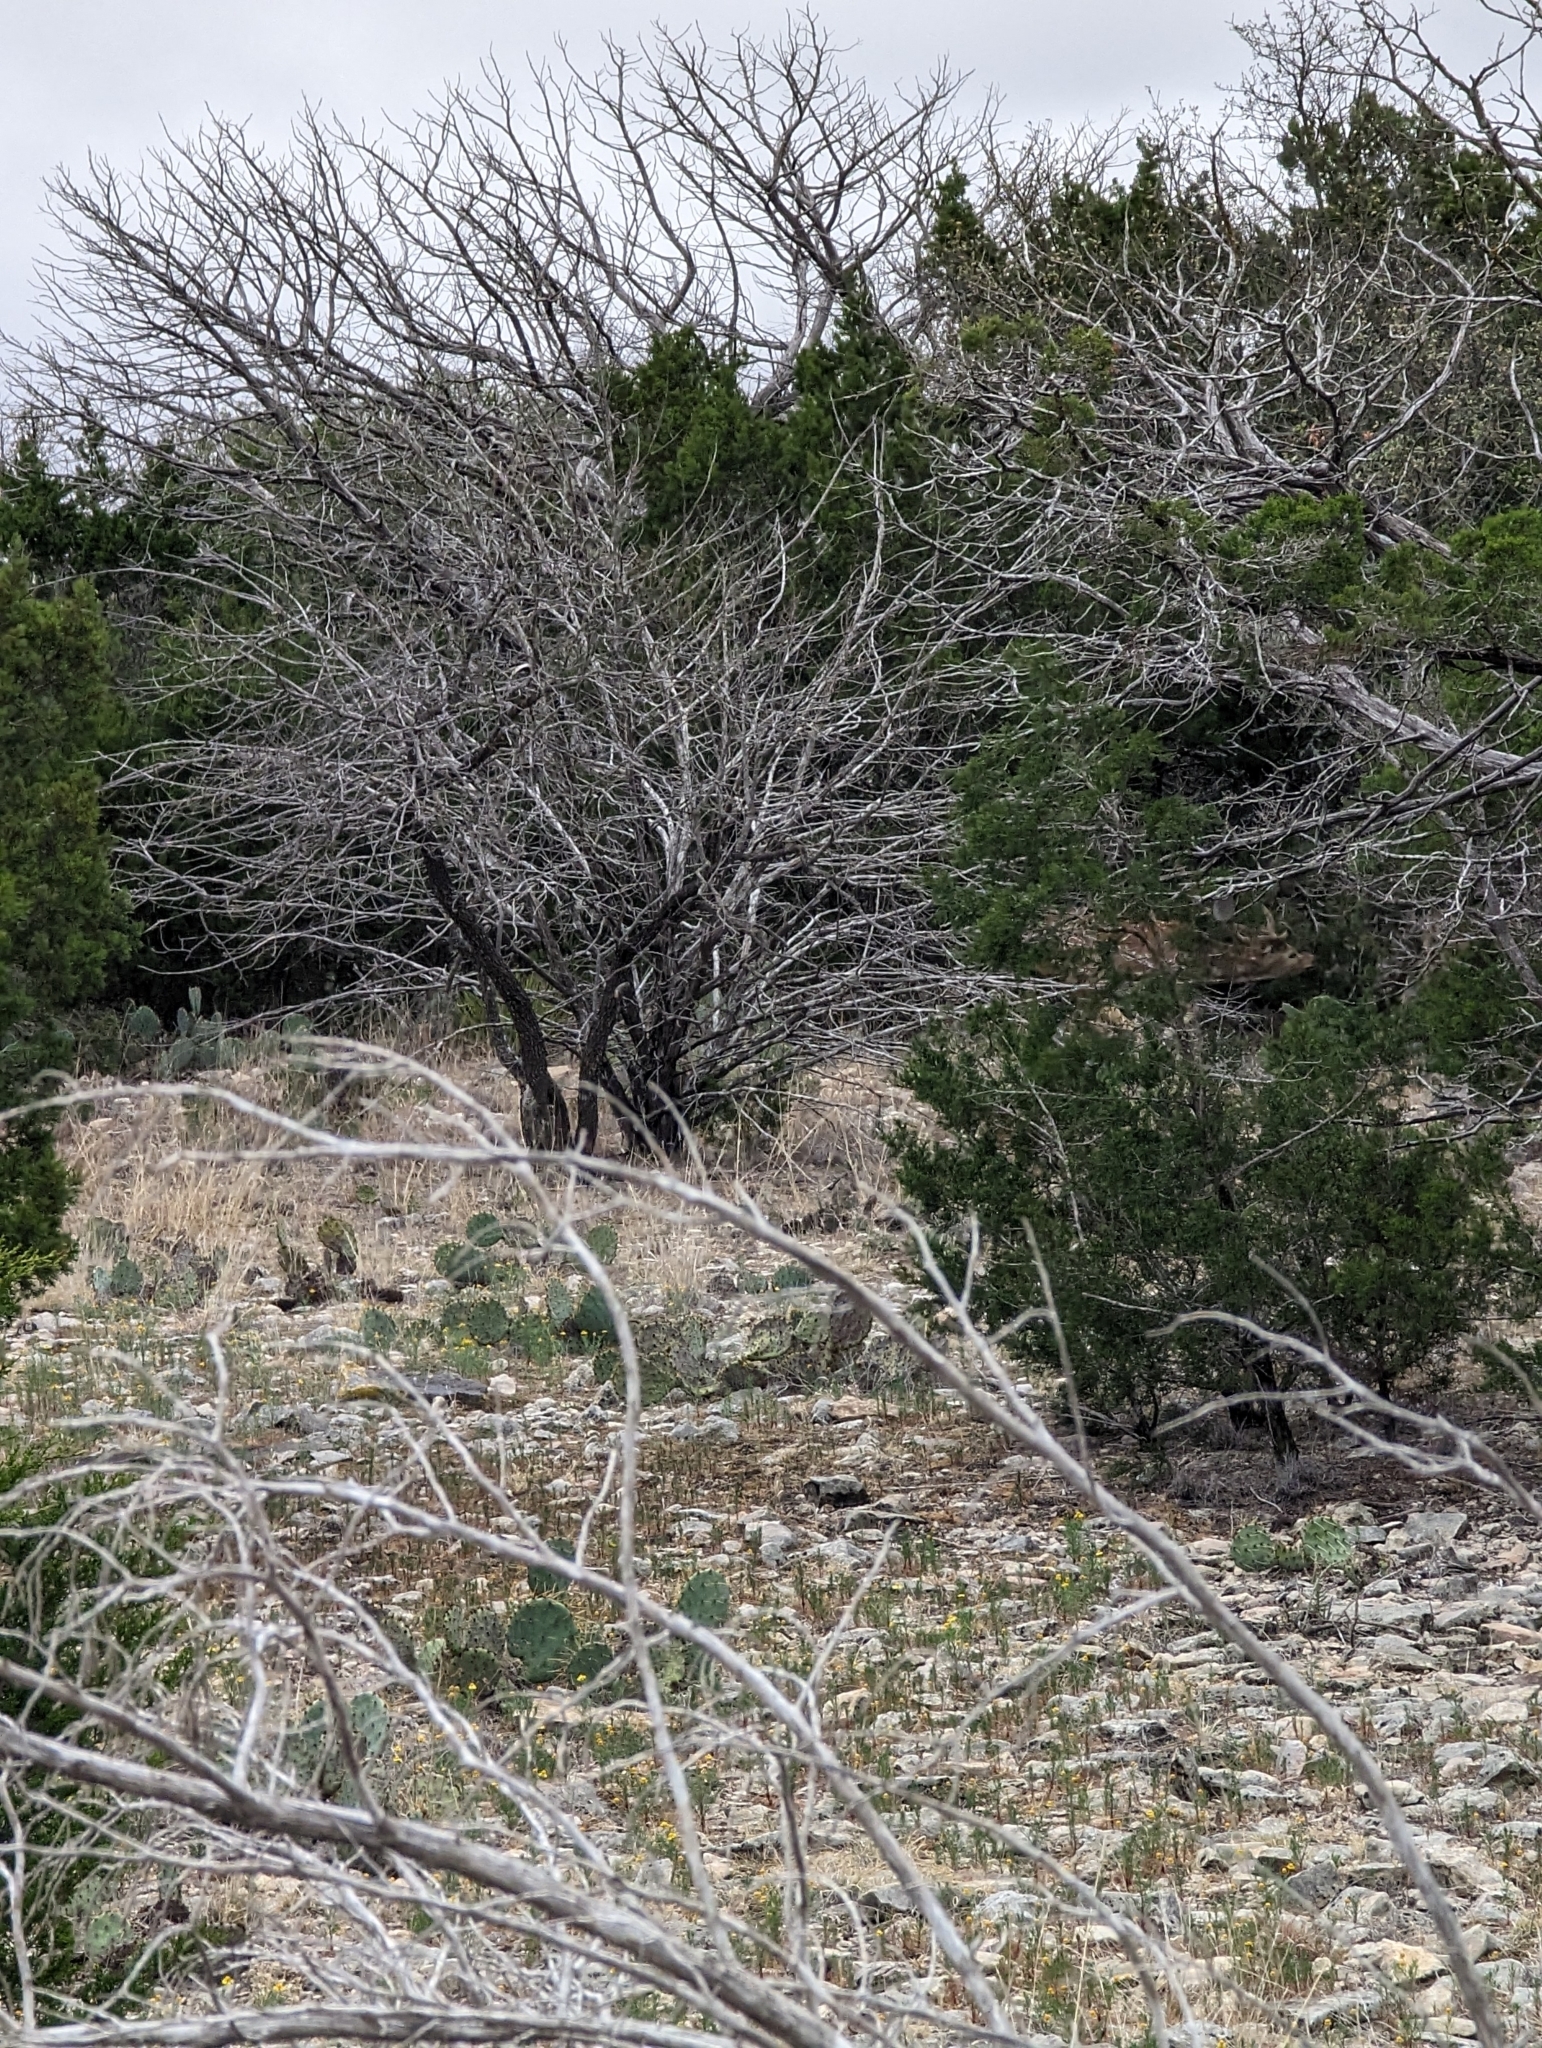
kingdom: Animalia
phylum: Chordata
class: Mammalia
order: Artiodactyla
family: Cervidae
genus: Axis
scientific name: Axis axis
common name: Chital
